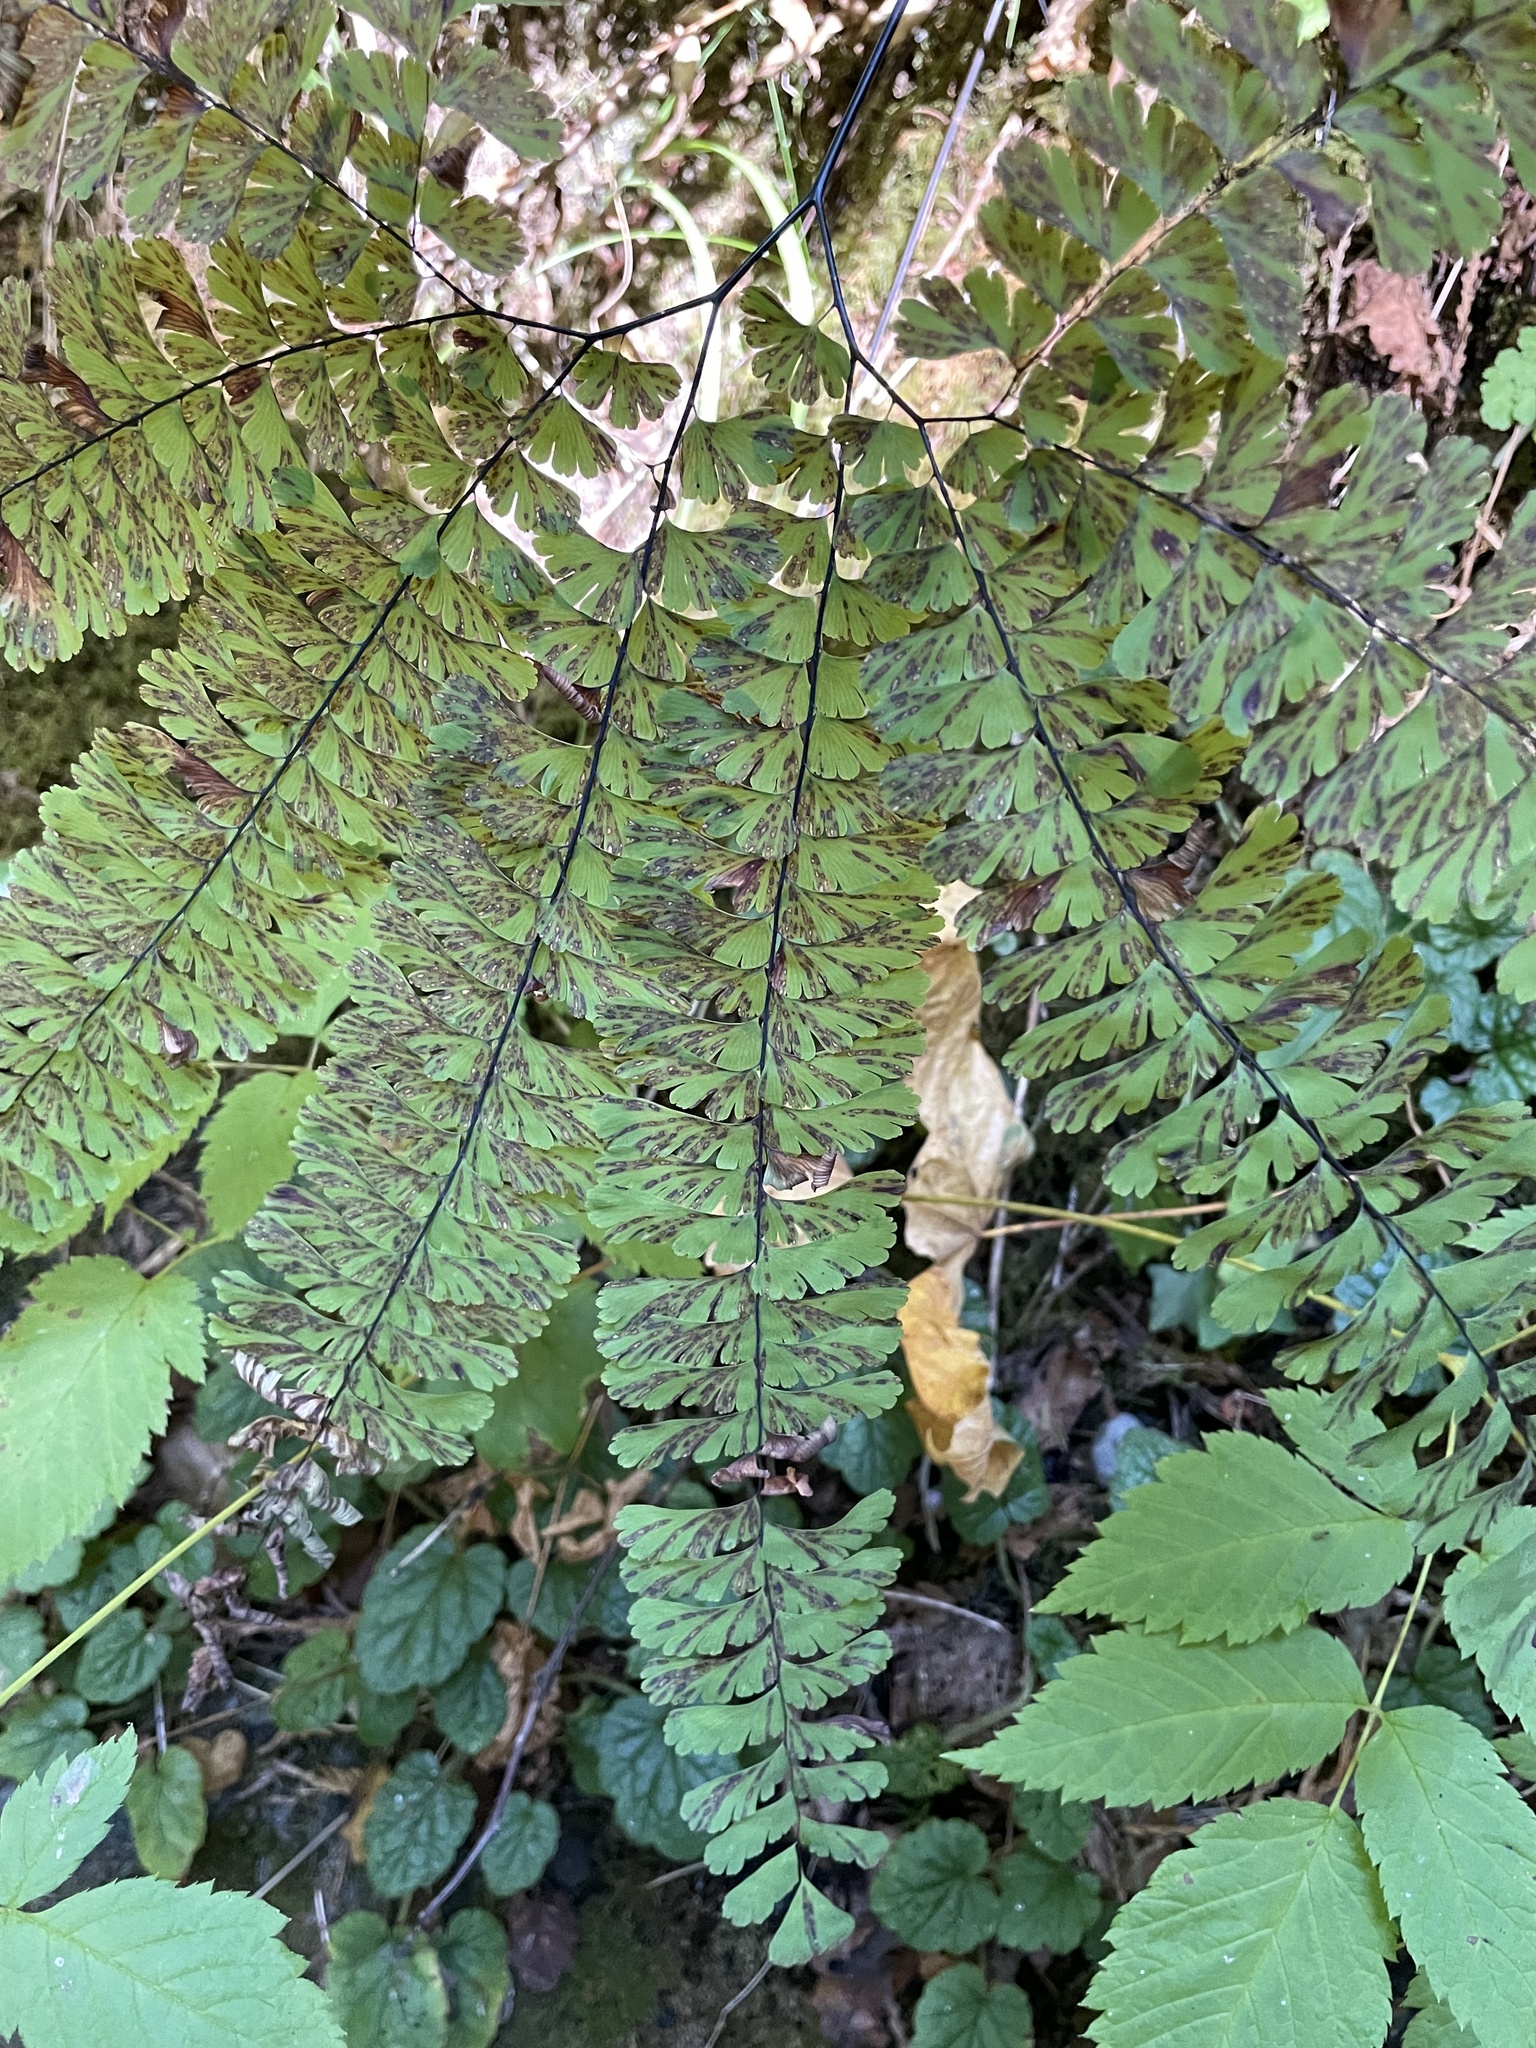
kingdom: Plantae
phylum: Tracheophyta
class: Polypodiopsida
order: Polypodiales
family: Pteridaceae
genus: Adiantum
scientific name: Adiantum aleuticum
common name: Aleutian maidenhair fern
